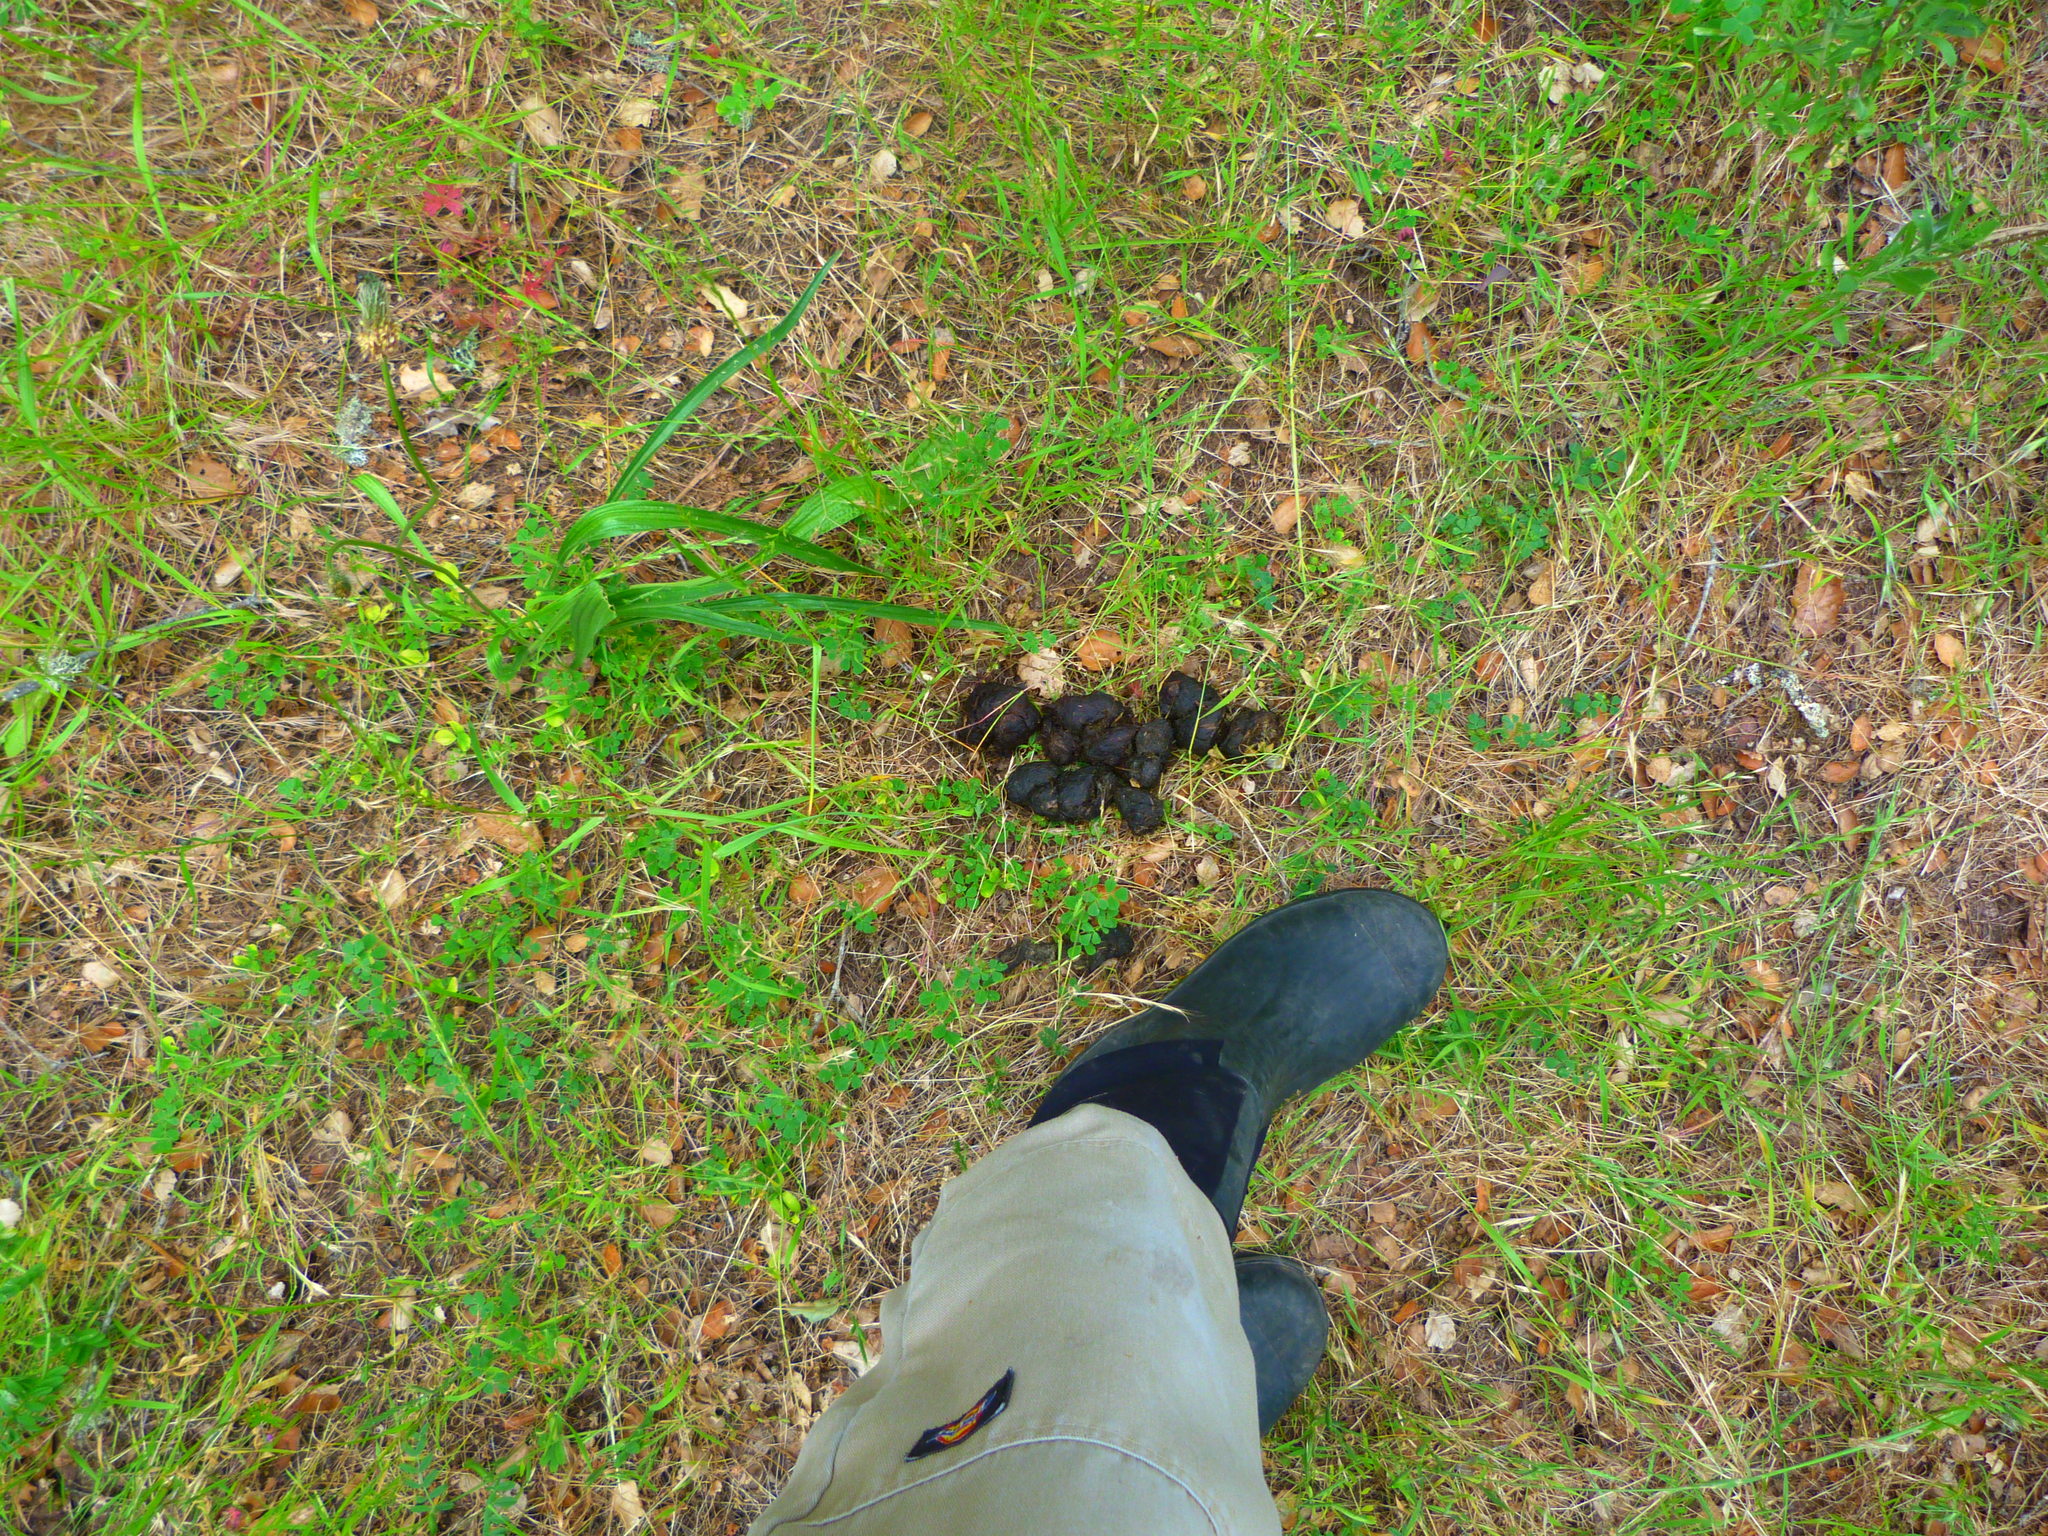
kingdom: Animalia
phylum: Chordata
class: Mammalia
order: Carnivora
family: Ursidae
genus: Ursus
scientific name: Ursus americanus
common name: American black bear
